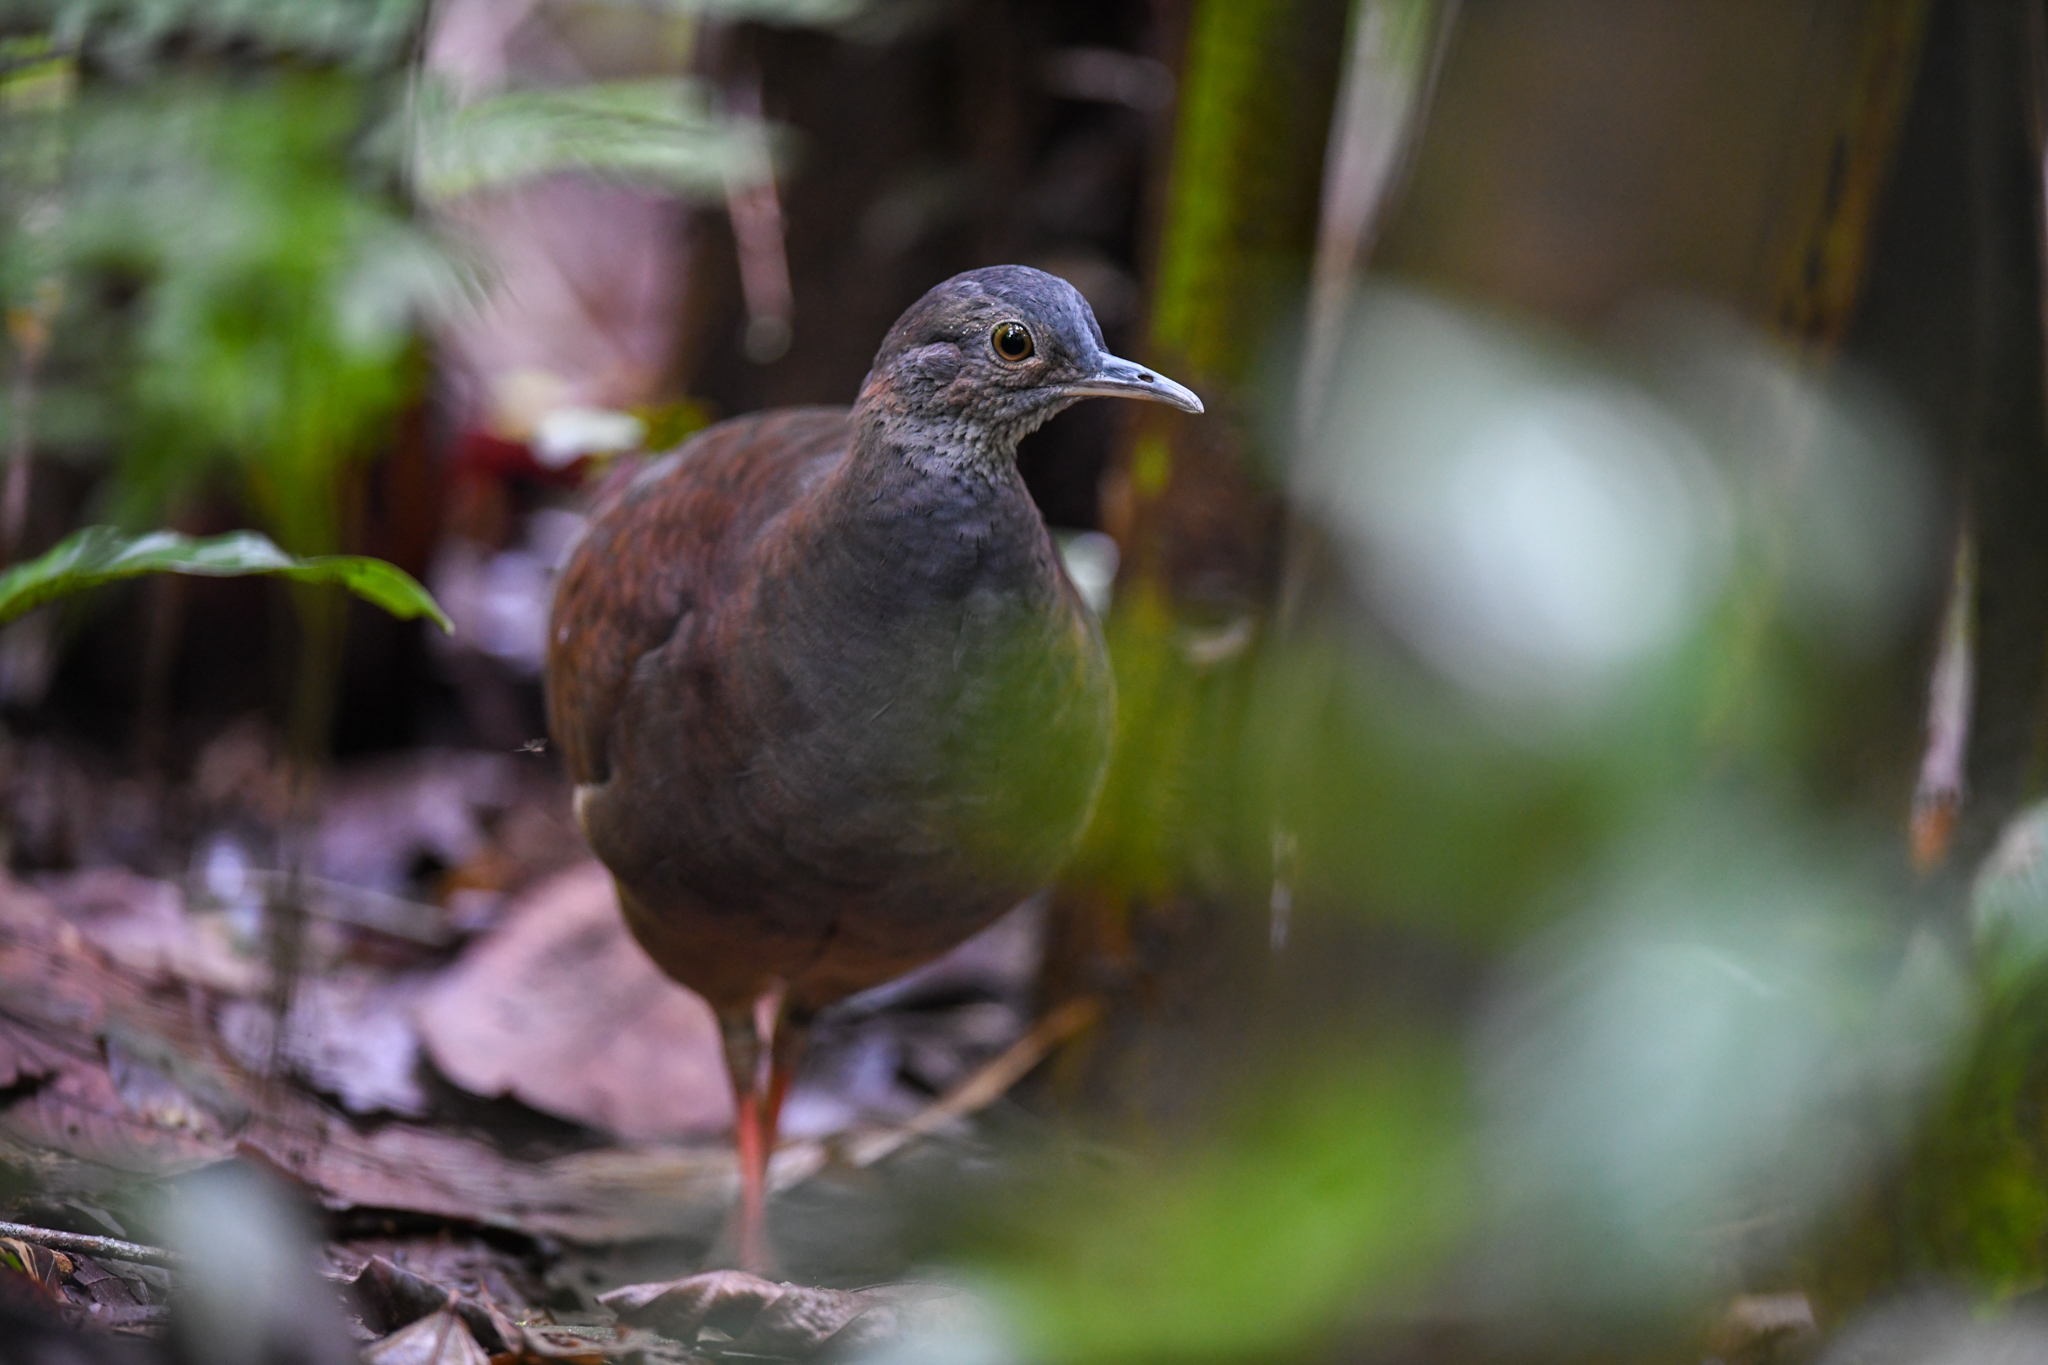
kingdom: Animalia
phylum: Chordata
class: Aves
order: Tinamiformes
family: Tinamidae
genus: Crypturellus
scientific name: Crypturellus boucardi
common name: Slaty-breasted tinamou
